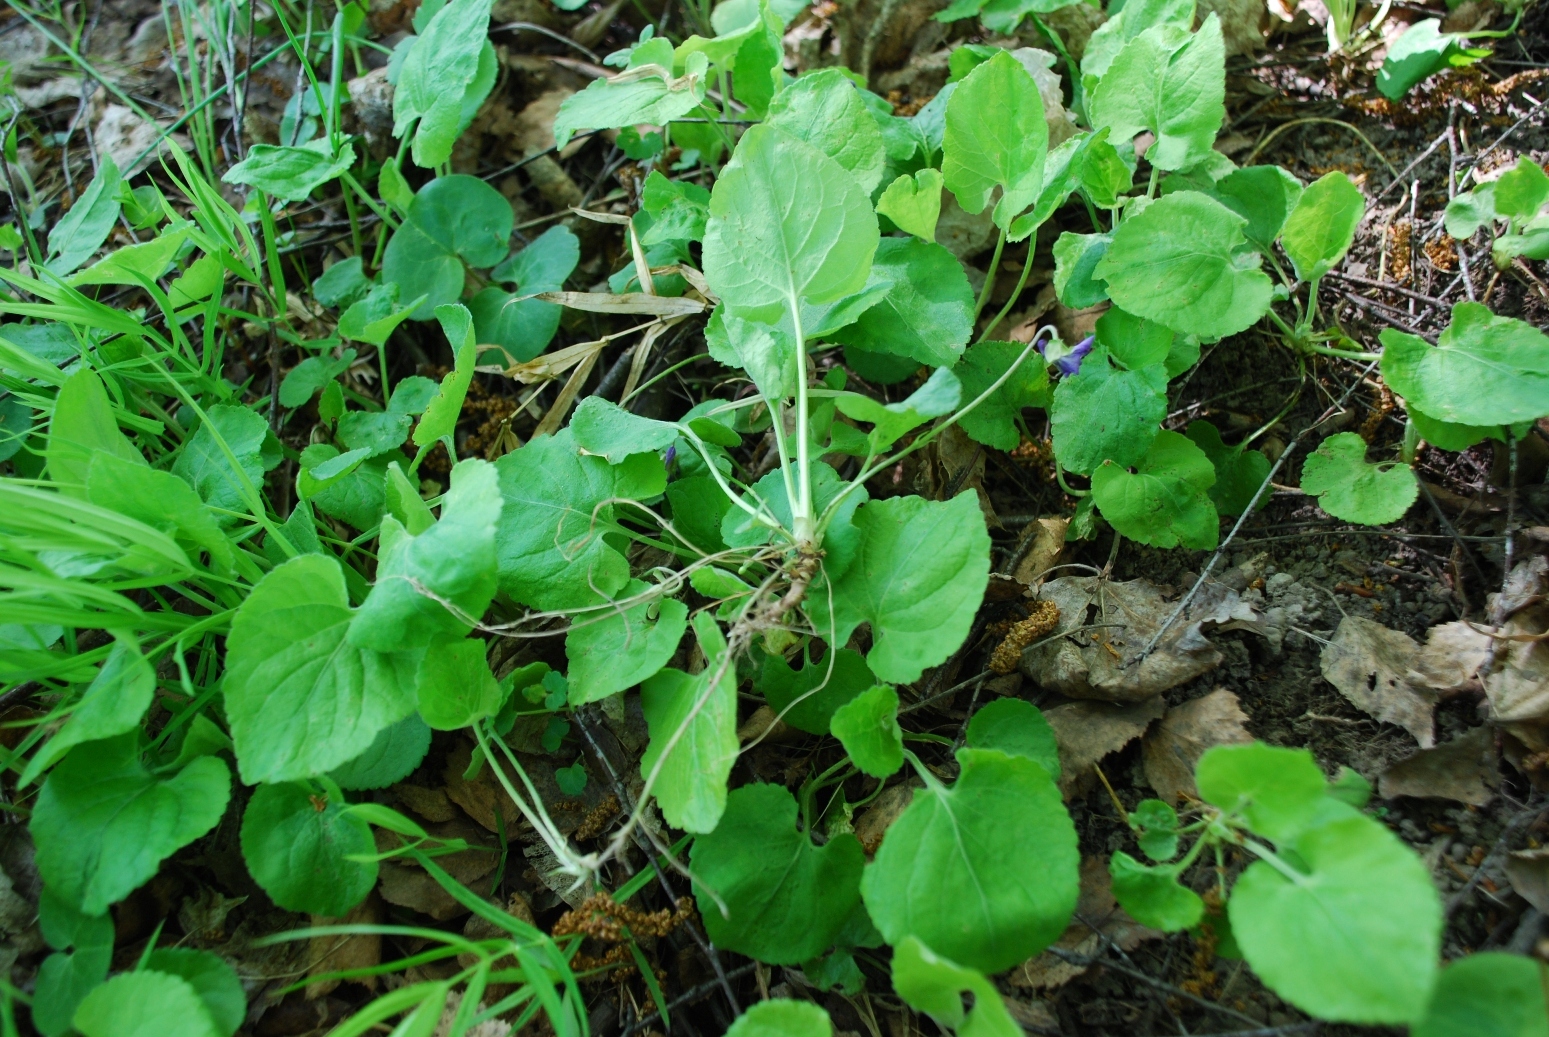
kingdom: Plantae
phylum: Tracheophyta
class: Magnoliopsida
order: Malpighiales
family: Violaceae
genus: Viola
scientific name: Viola odorata
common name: Sweet violet
